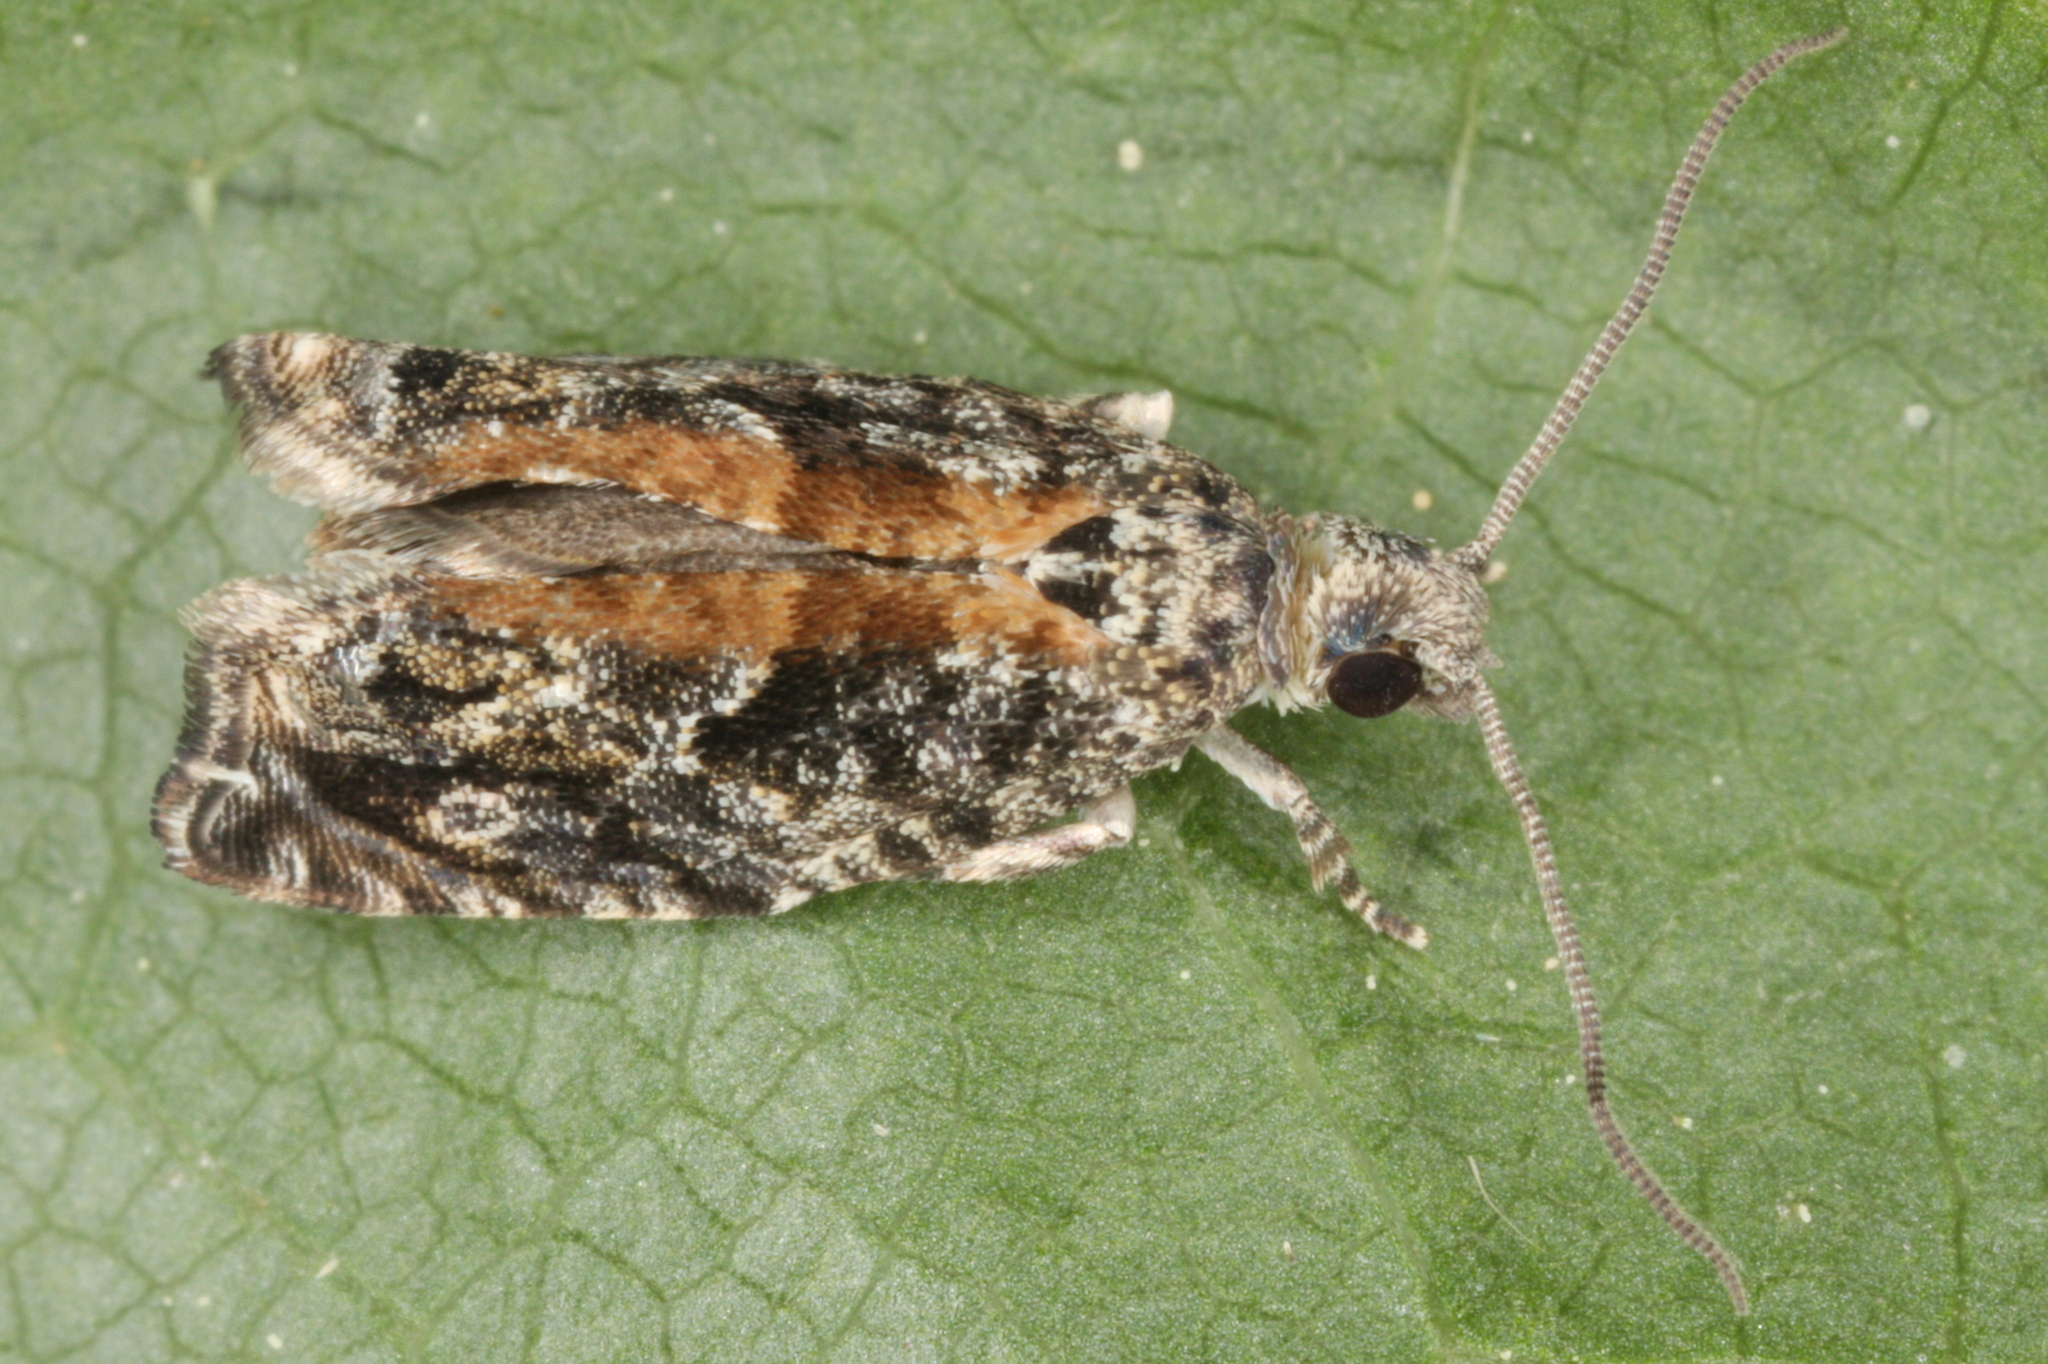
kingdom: Animalia
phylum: Arthropoda
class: Insecta
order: Lepidoptera
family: Tortricidae
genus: Epinotia
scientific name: Epinotia nisella
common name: Grey poplar bell
